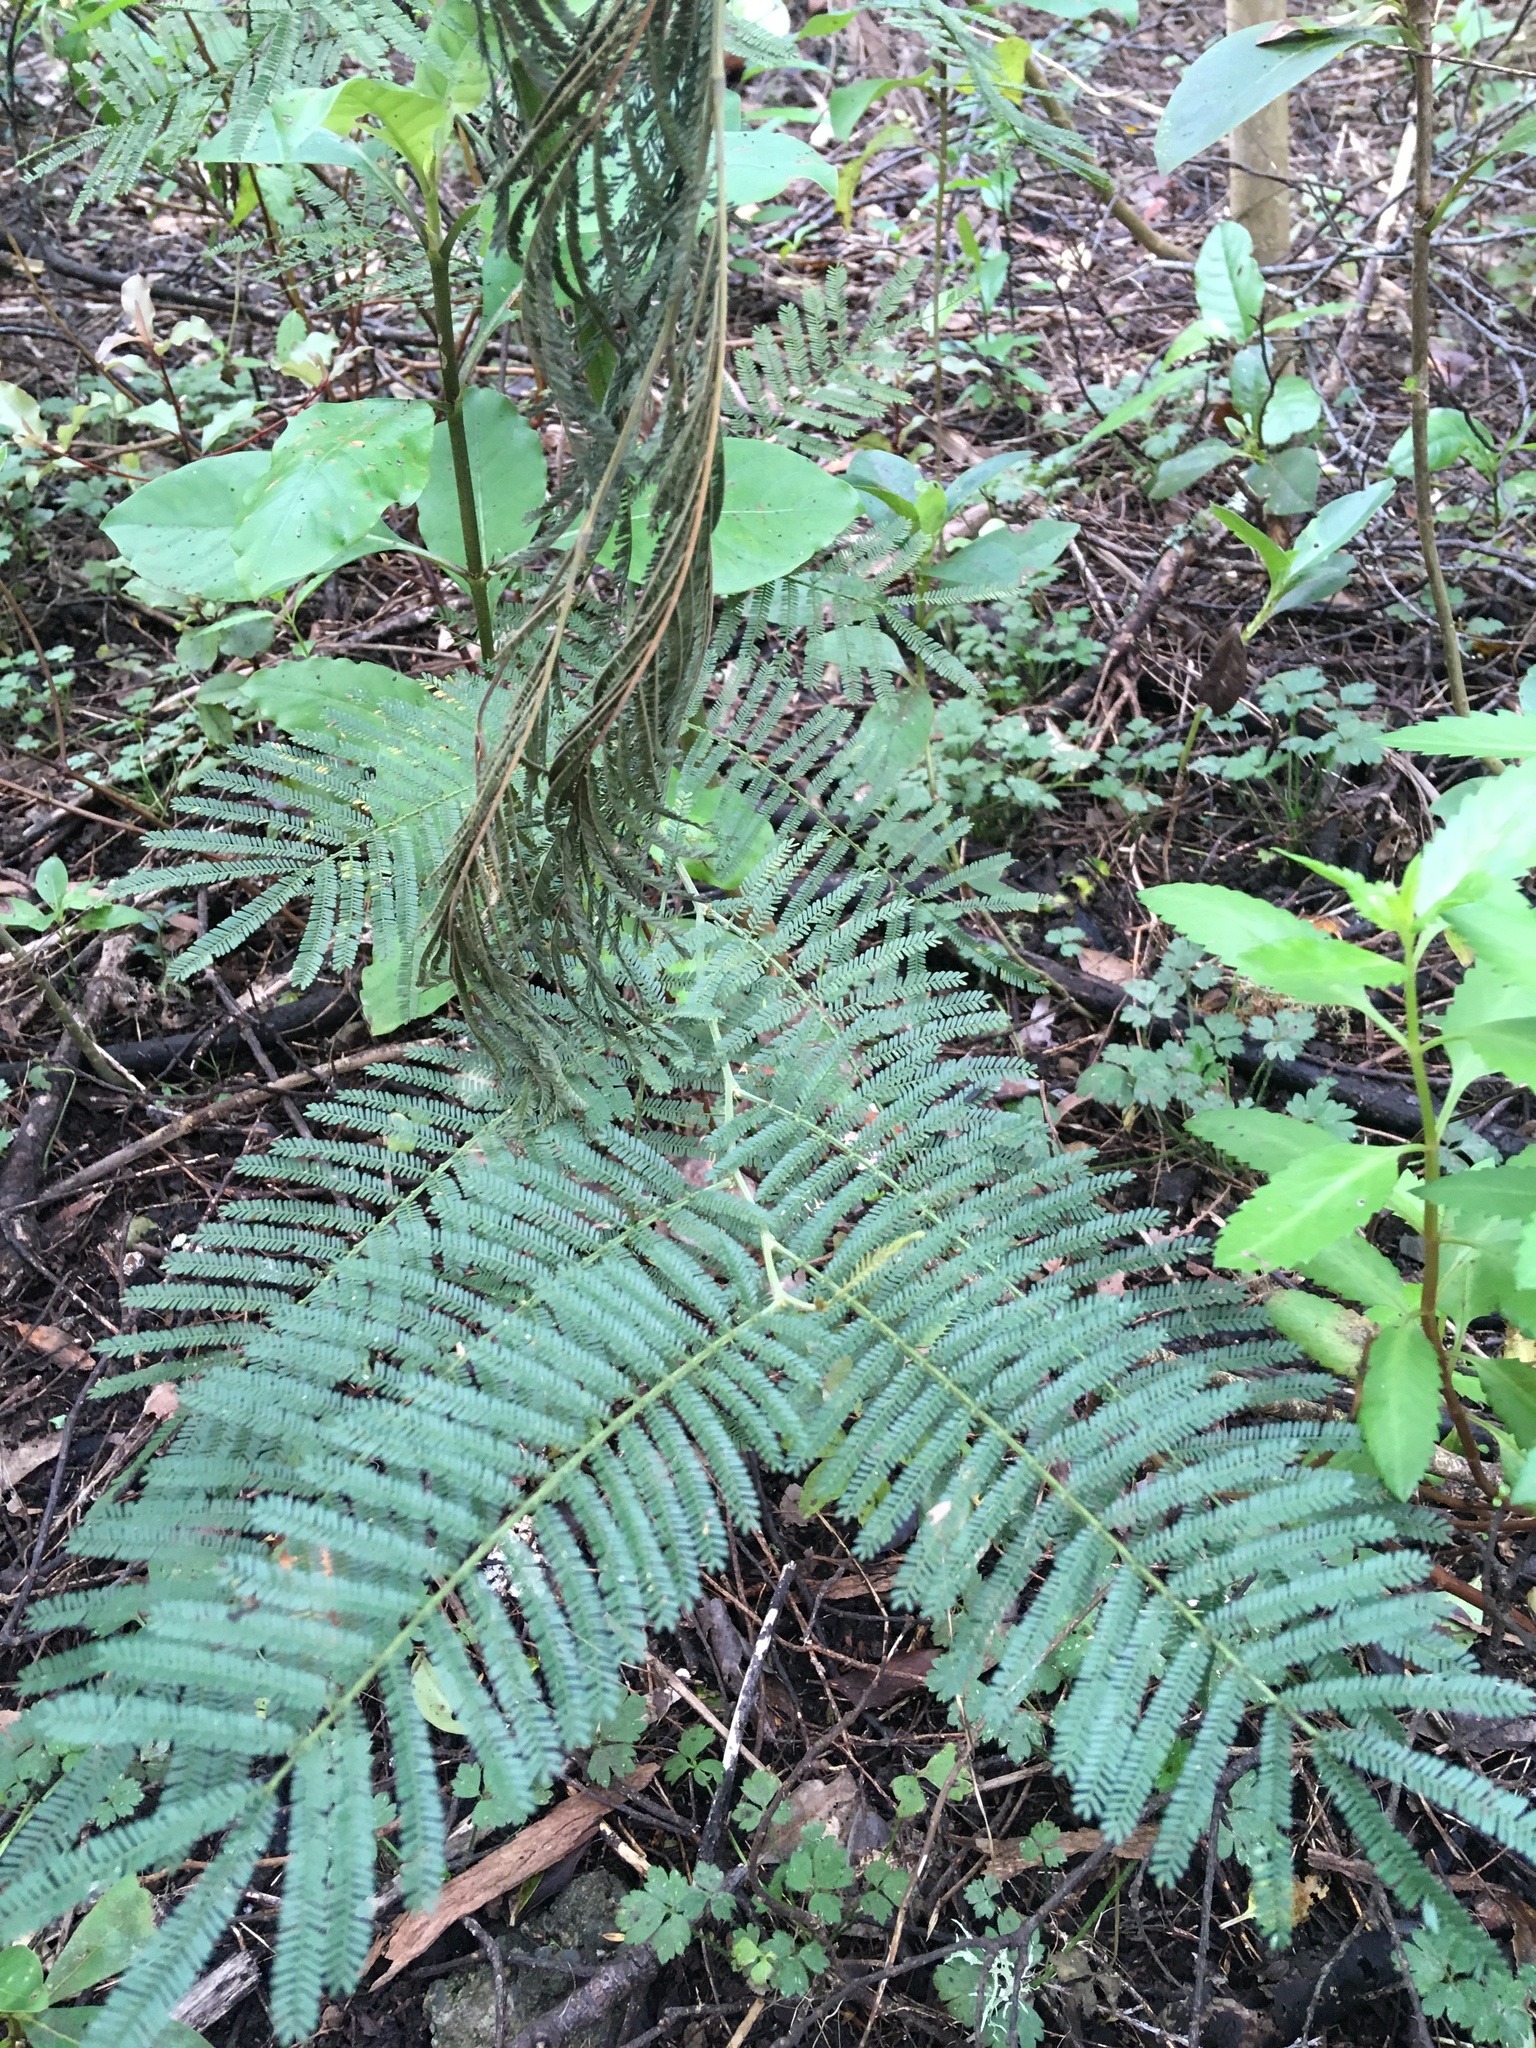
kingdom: Plantae
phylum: Tracheophyta
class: Magnoliopsida
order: Fabales
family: Fabaceae
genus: Acacia
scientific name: Acacia mearnsii
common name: Black wattle
